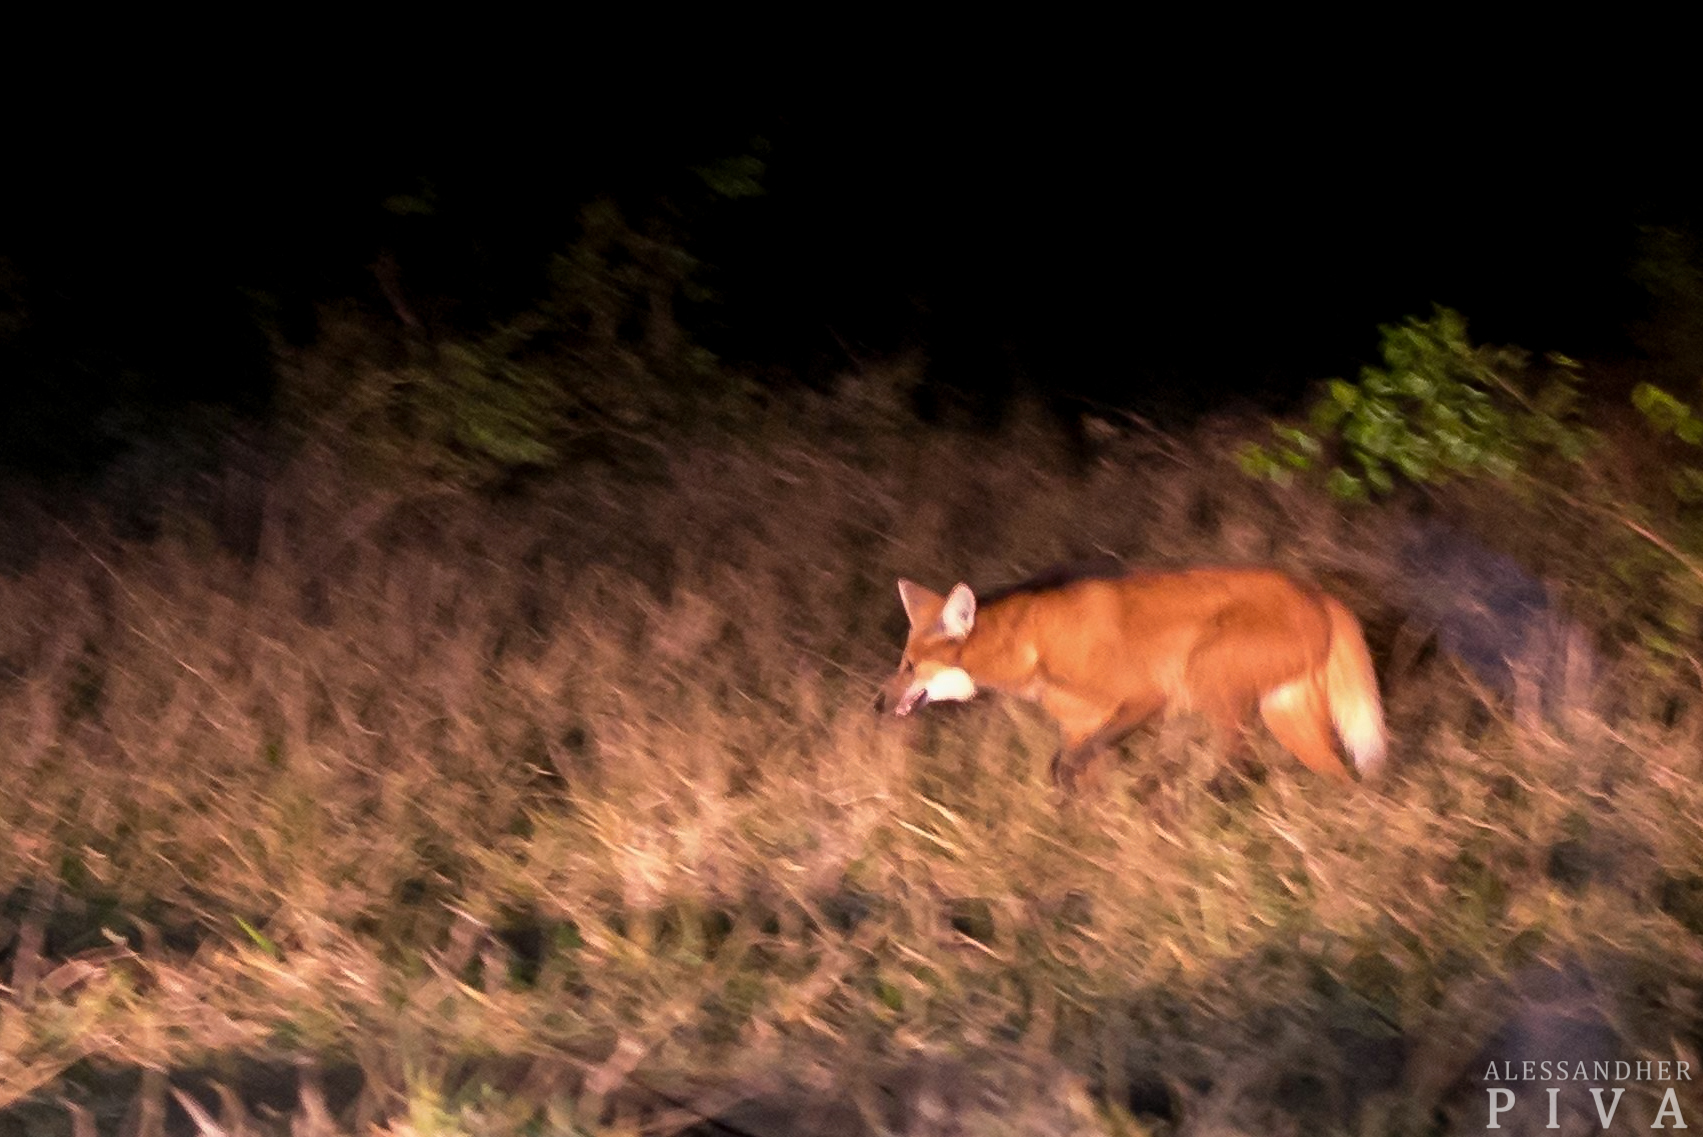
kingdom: Animalia
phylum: Chordata
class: Mammalia
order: Carnivora
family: Canidae
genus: Chrysocyon
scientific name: Chrysocyon brachyurus
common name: Maned wolf
